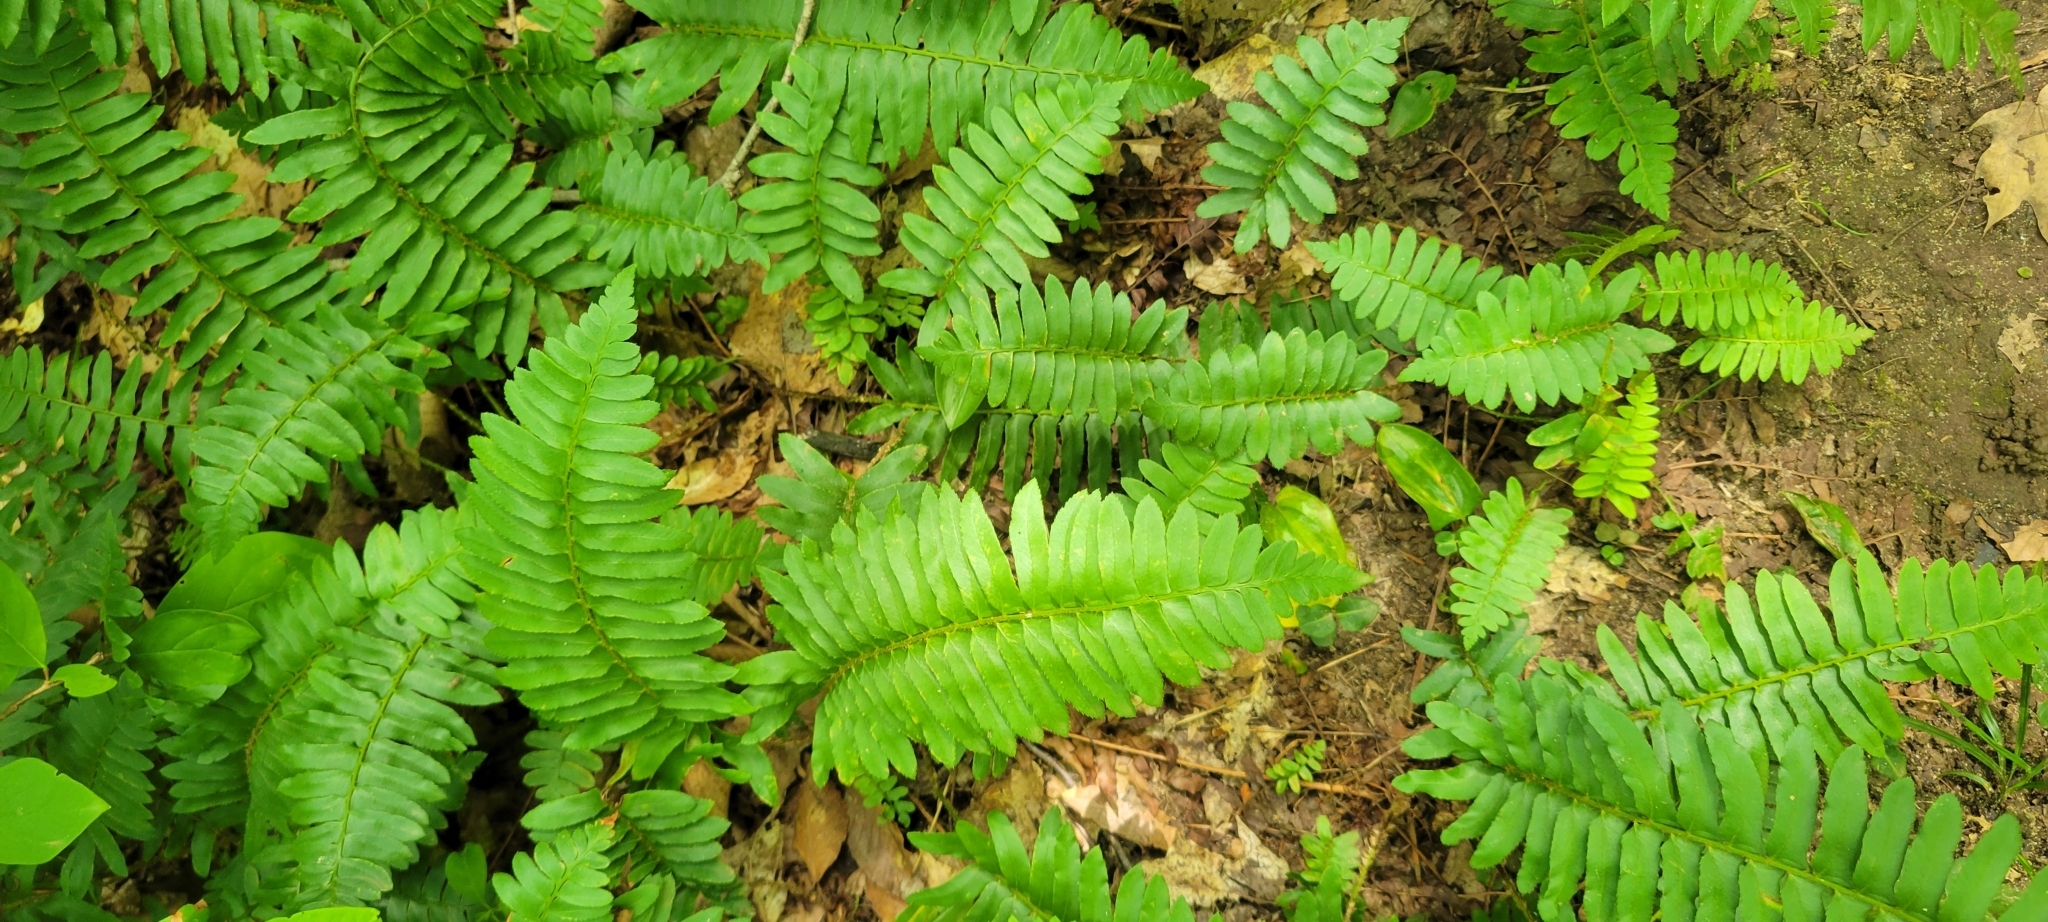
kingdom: Plantae
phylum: Tracheophyta
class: Polypodiopsida
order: Polypodiales
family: Dryopteridaceae
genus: Polystichum
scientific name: Polystichum acrostichoides
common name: Christmas fern
